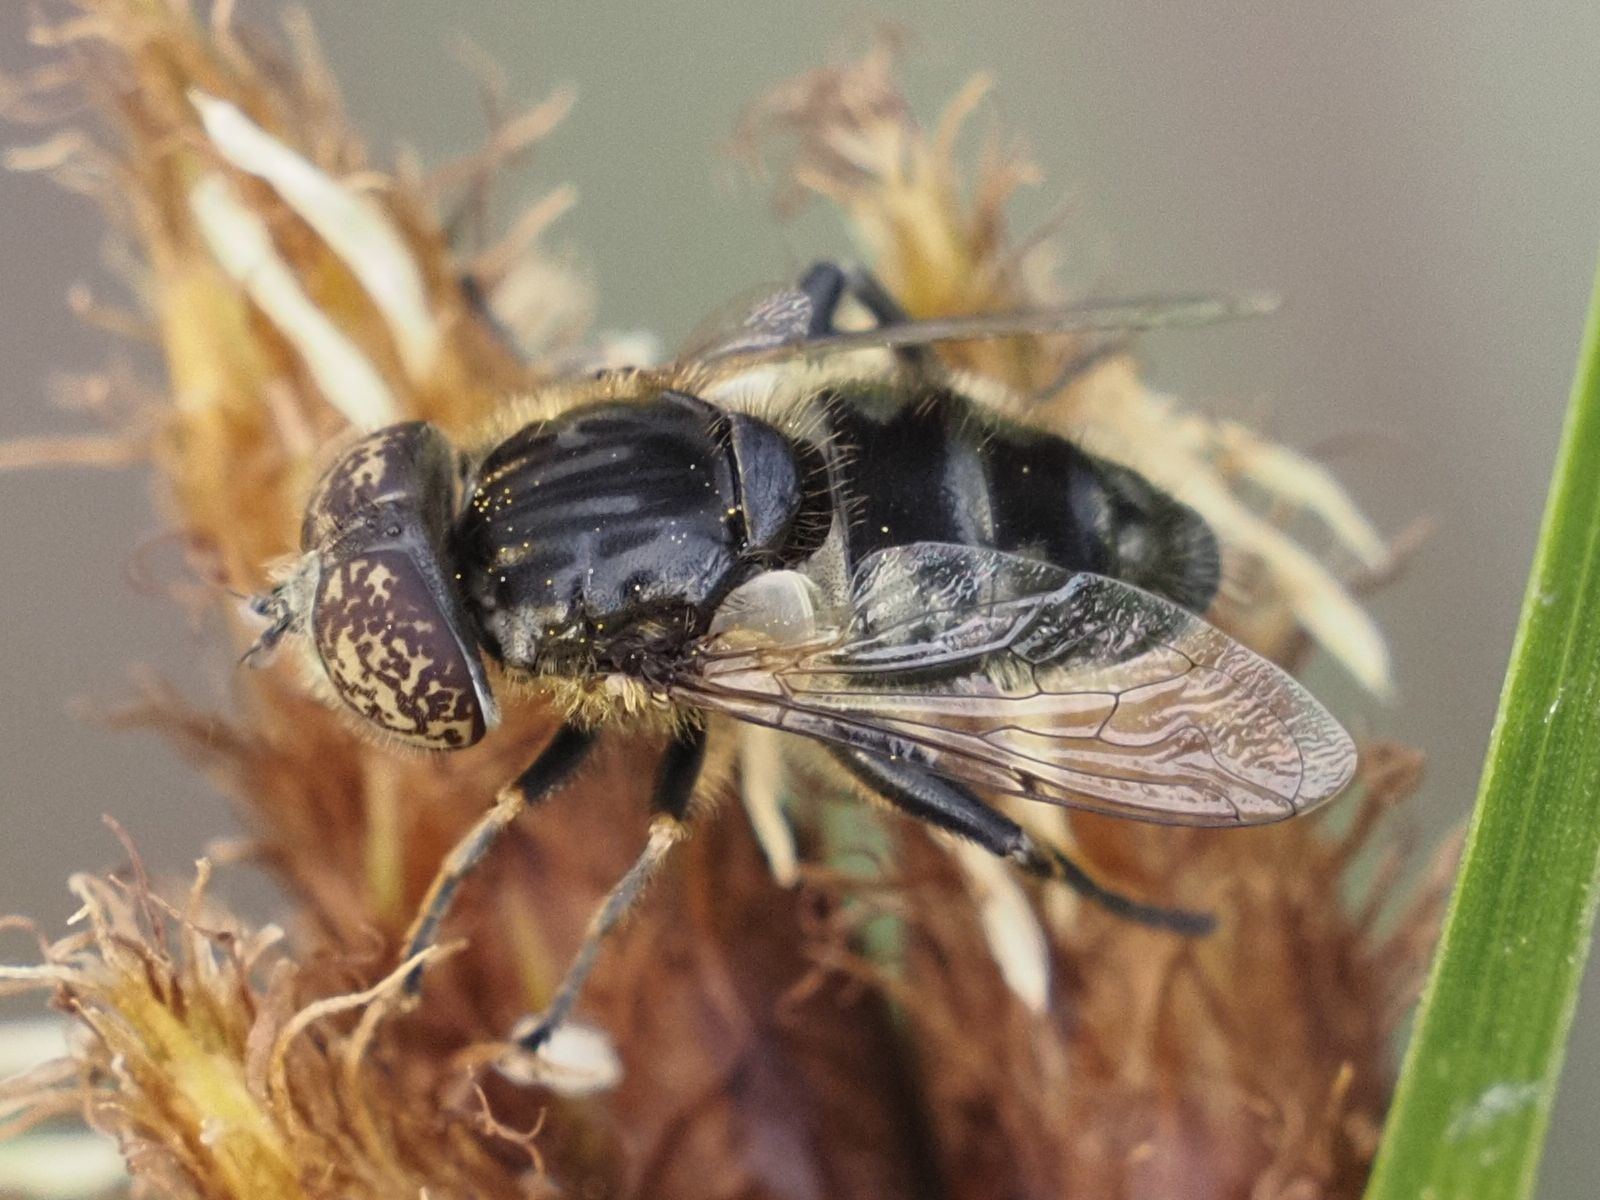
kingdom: Animalia
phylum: Arthropoda
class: Insecta
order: Diptera
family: Syrphidae
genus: Eristalinus
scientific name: Eristalinus sepulchralis
